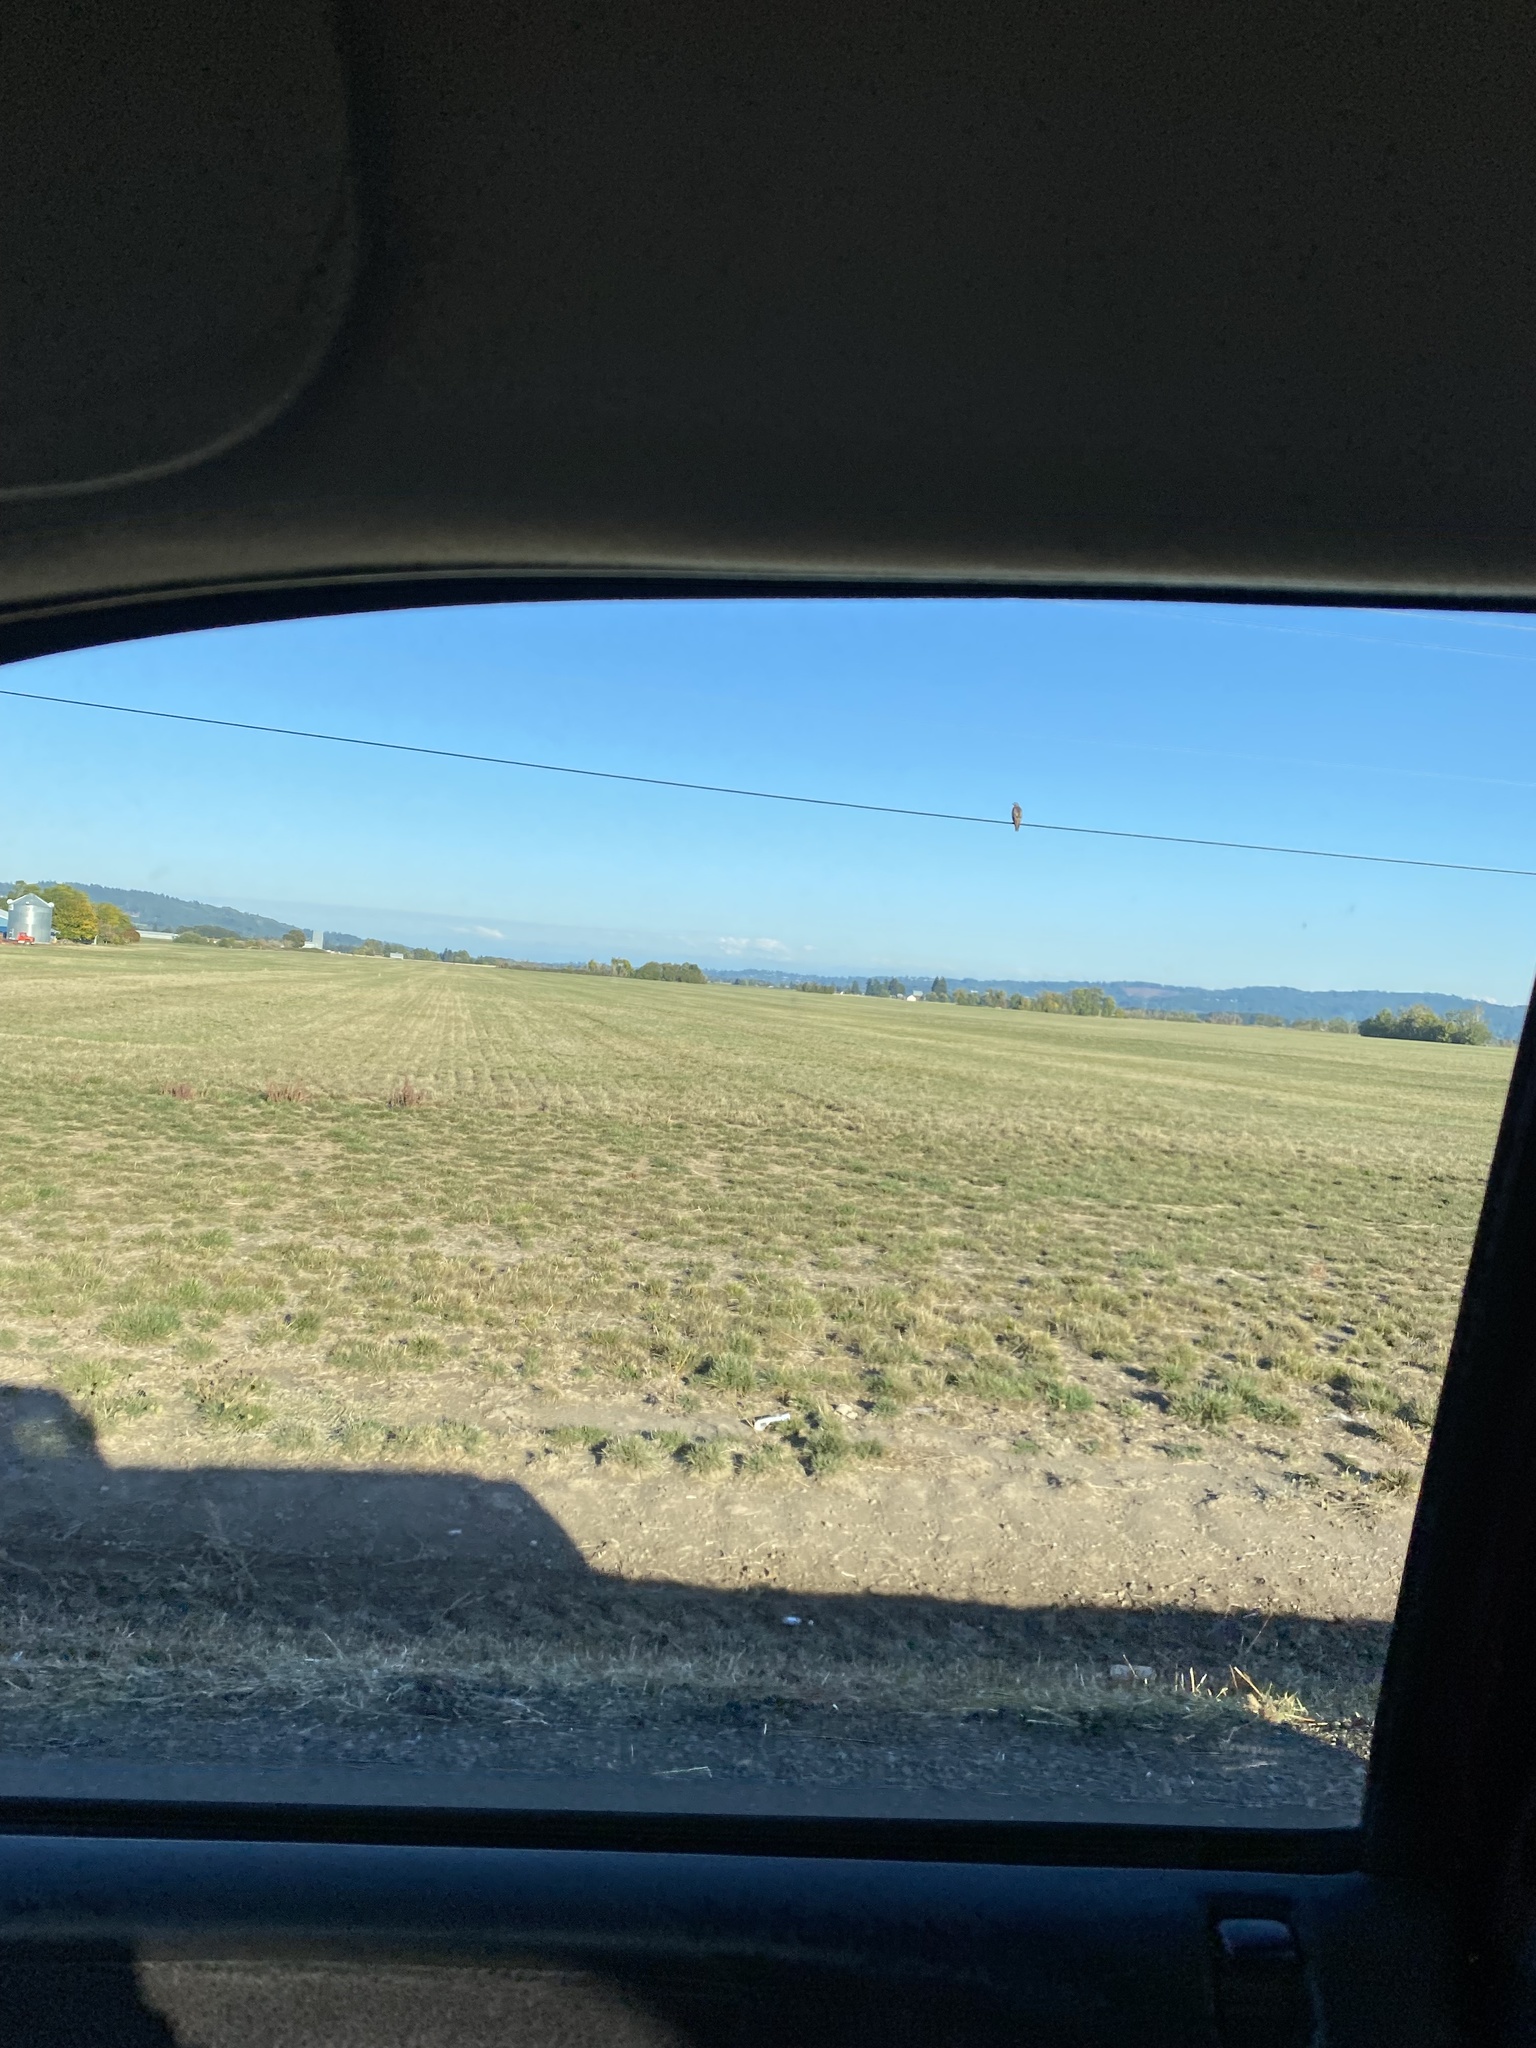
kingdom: Animalia
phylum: Chordata
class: Aves
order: Accipitriformes
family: Accipitridae
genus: Buteo
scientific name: Buteo jamaicensis
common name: Red-tailed hawk
